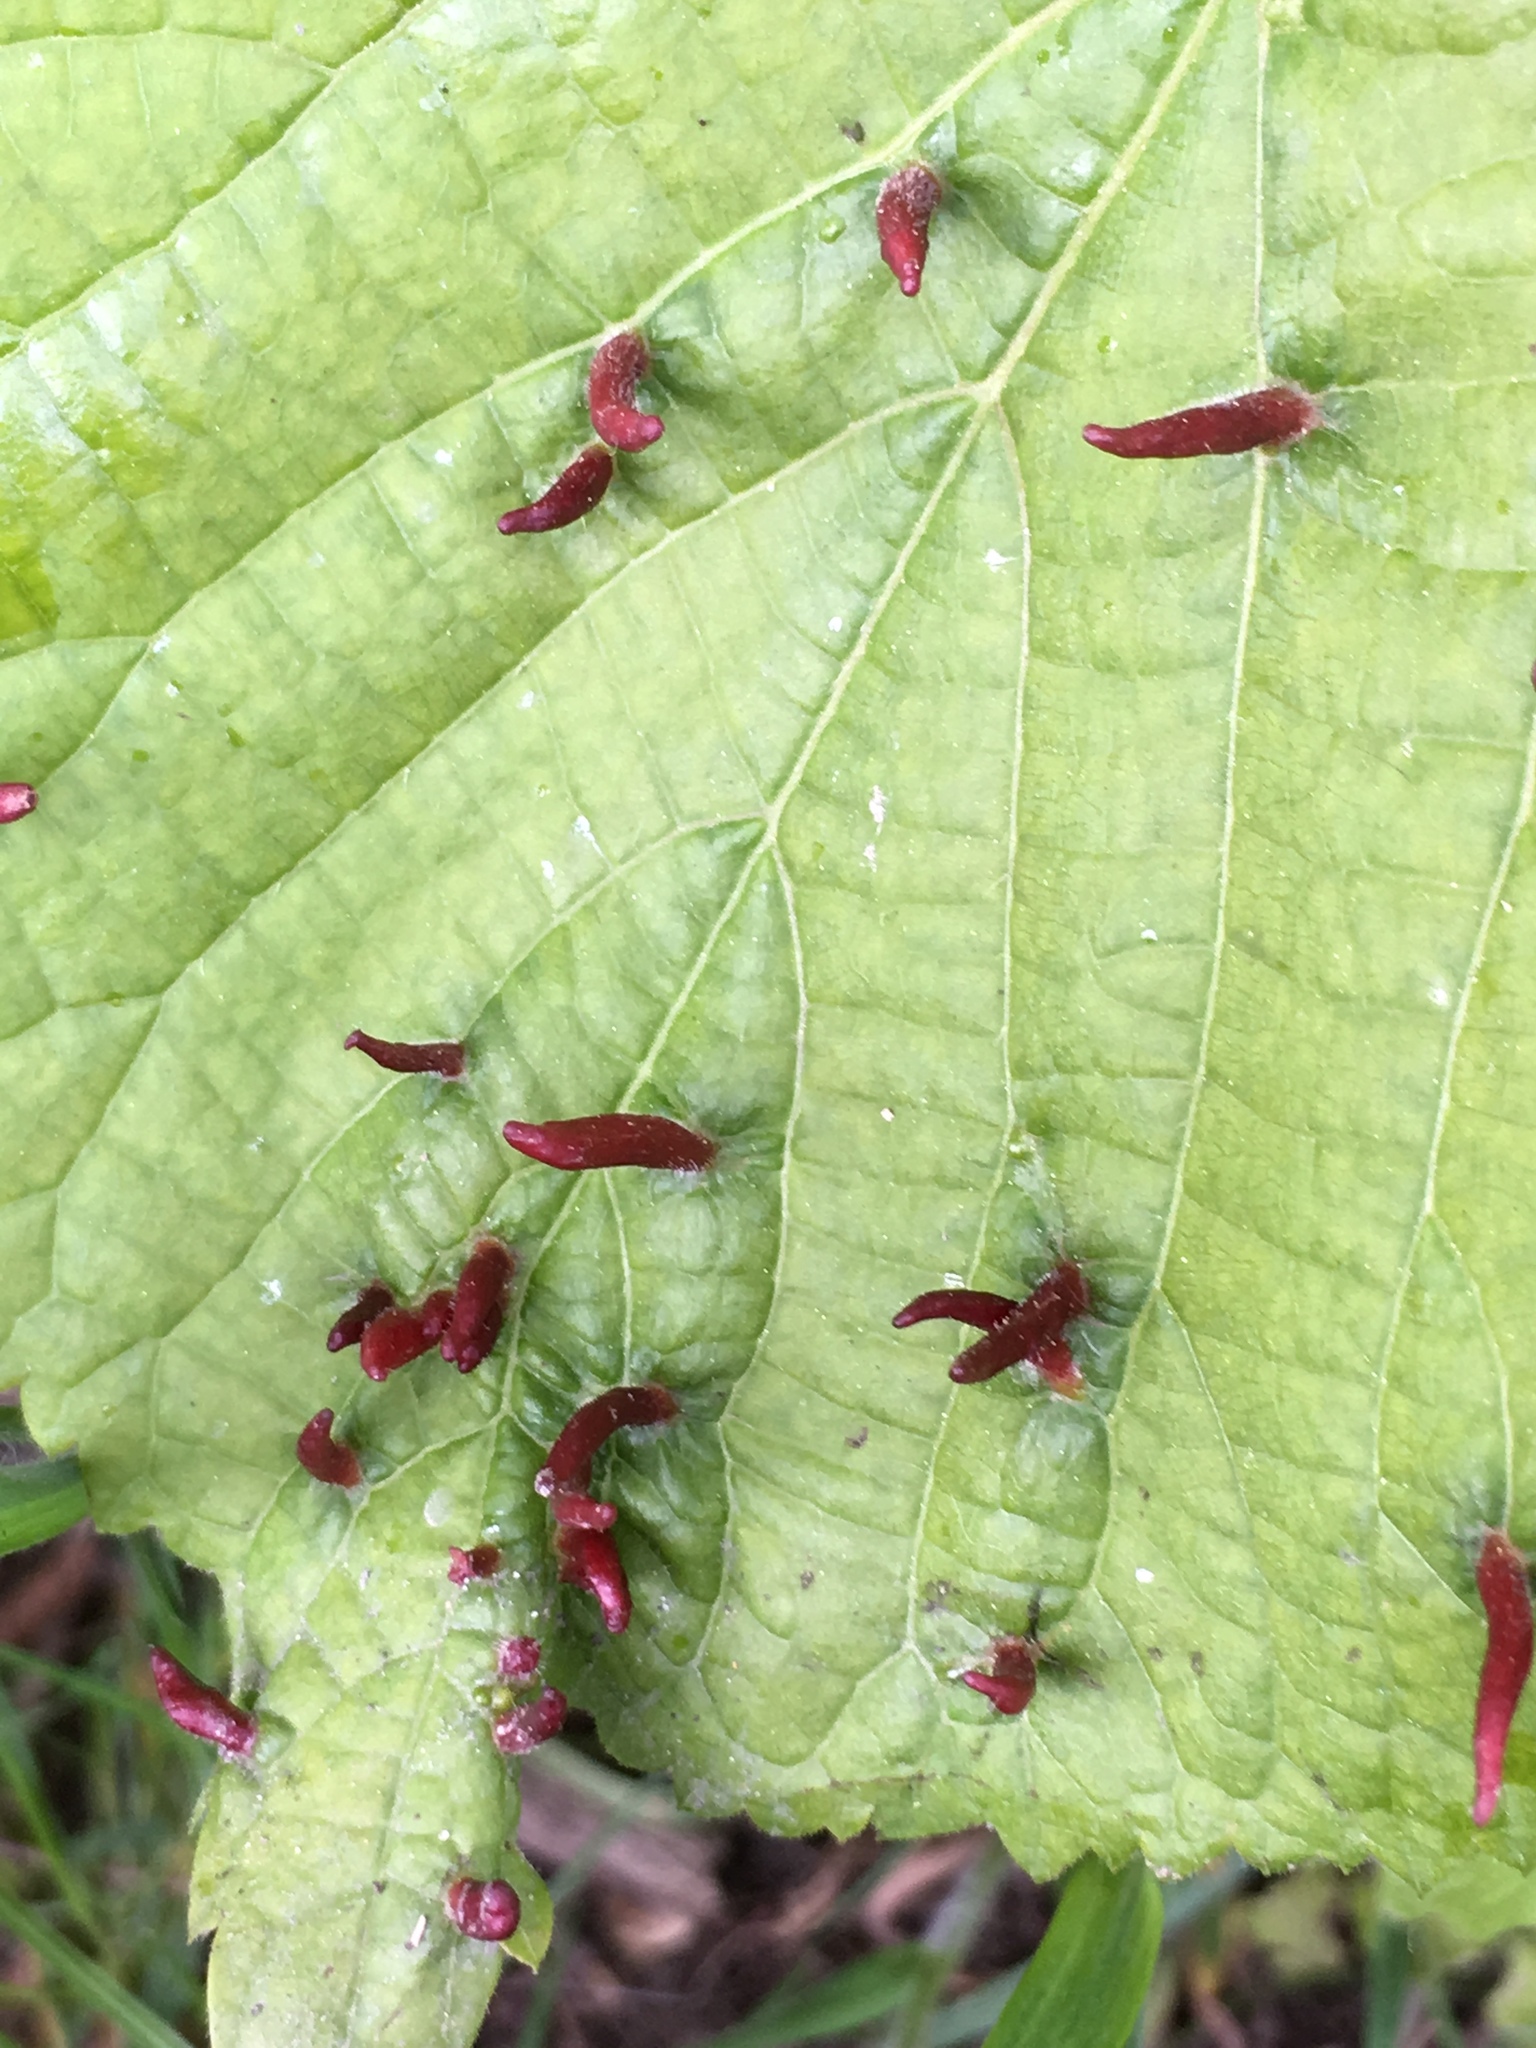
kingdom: Animalia
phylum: Arthropoda
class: Arachnida
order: Trombidiformes
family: Eriophyidae
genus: Eriophyes
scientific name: Eriophyes tiliae
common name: Red nail gall mite
